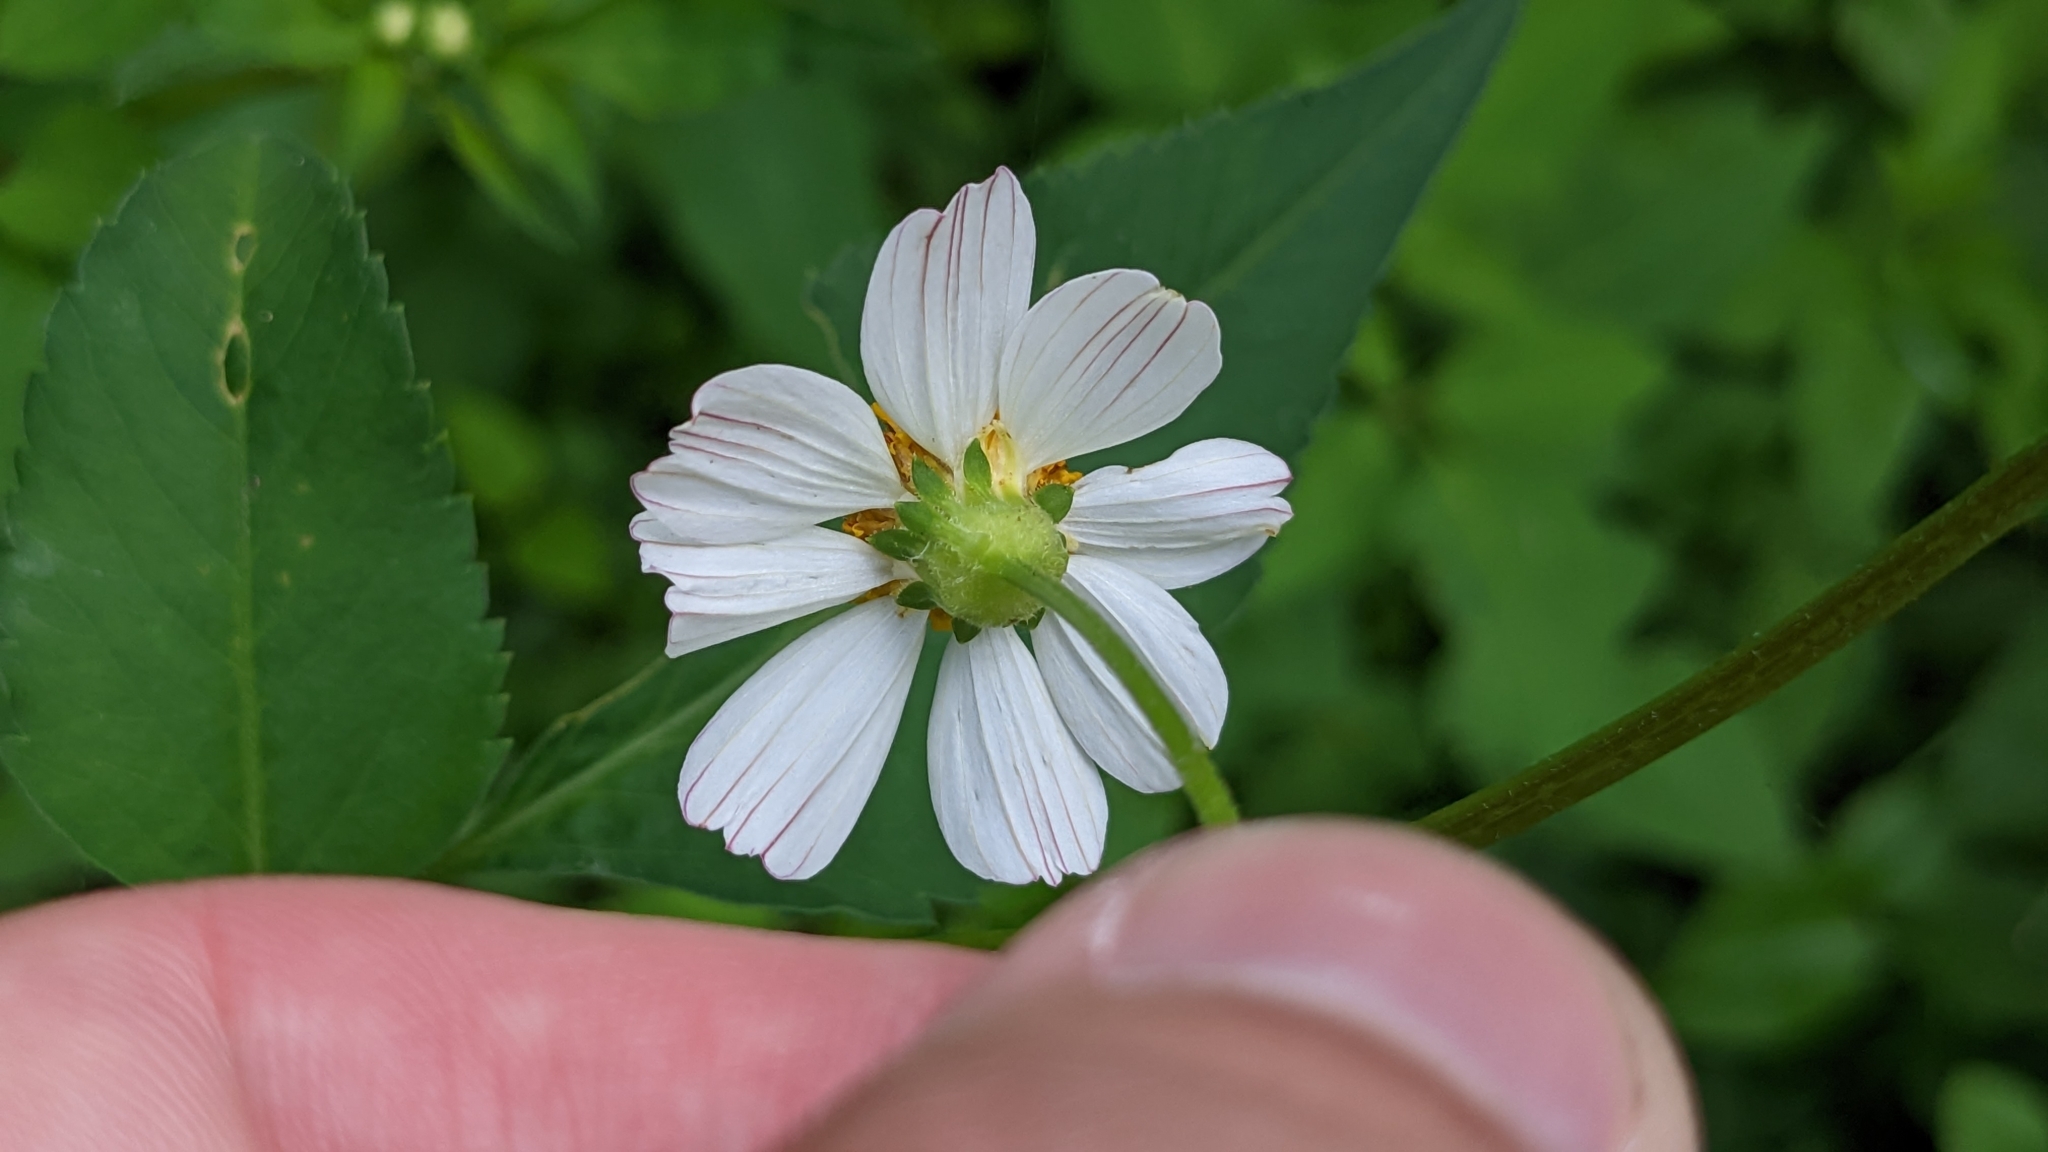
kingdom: Plantae
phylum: Tracheophyta
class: Magnoliopsida
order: Asterales
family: Asteraceae
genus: Bidens
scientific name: Bidens alba
